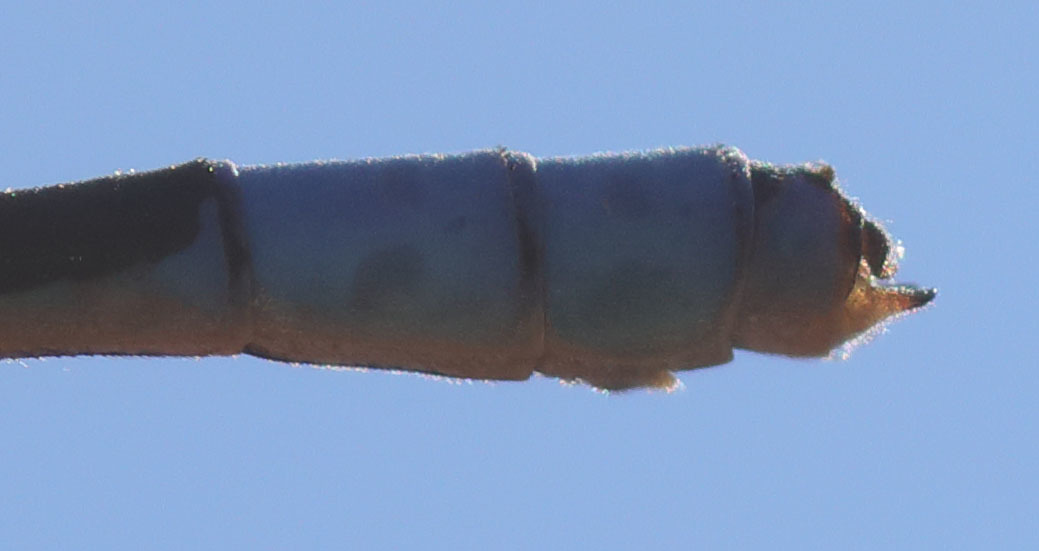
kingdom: Animalia
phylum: Arthropoda
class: Insecta
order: Odonata
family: Coenagrionidae
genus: Enallagma
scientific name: Enallagma annexum
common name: Northern bluet
